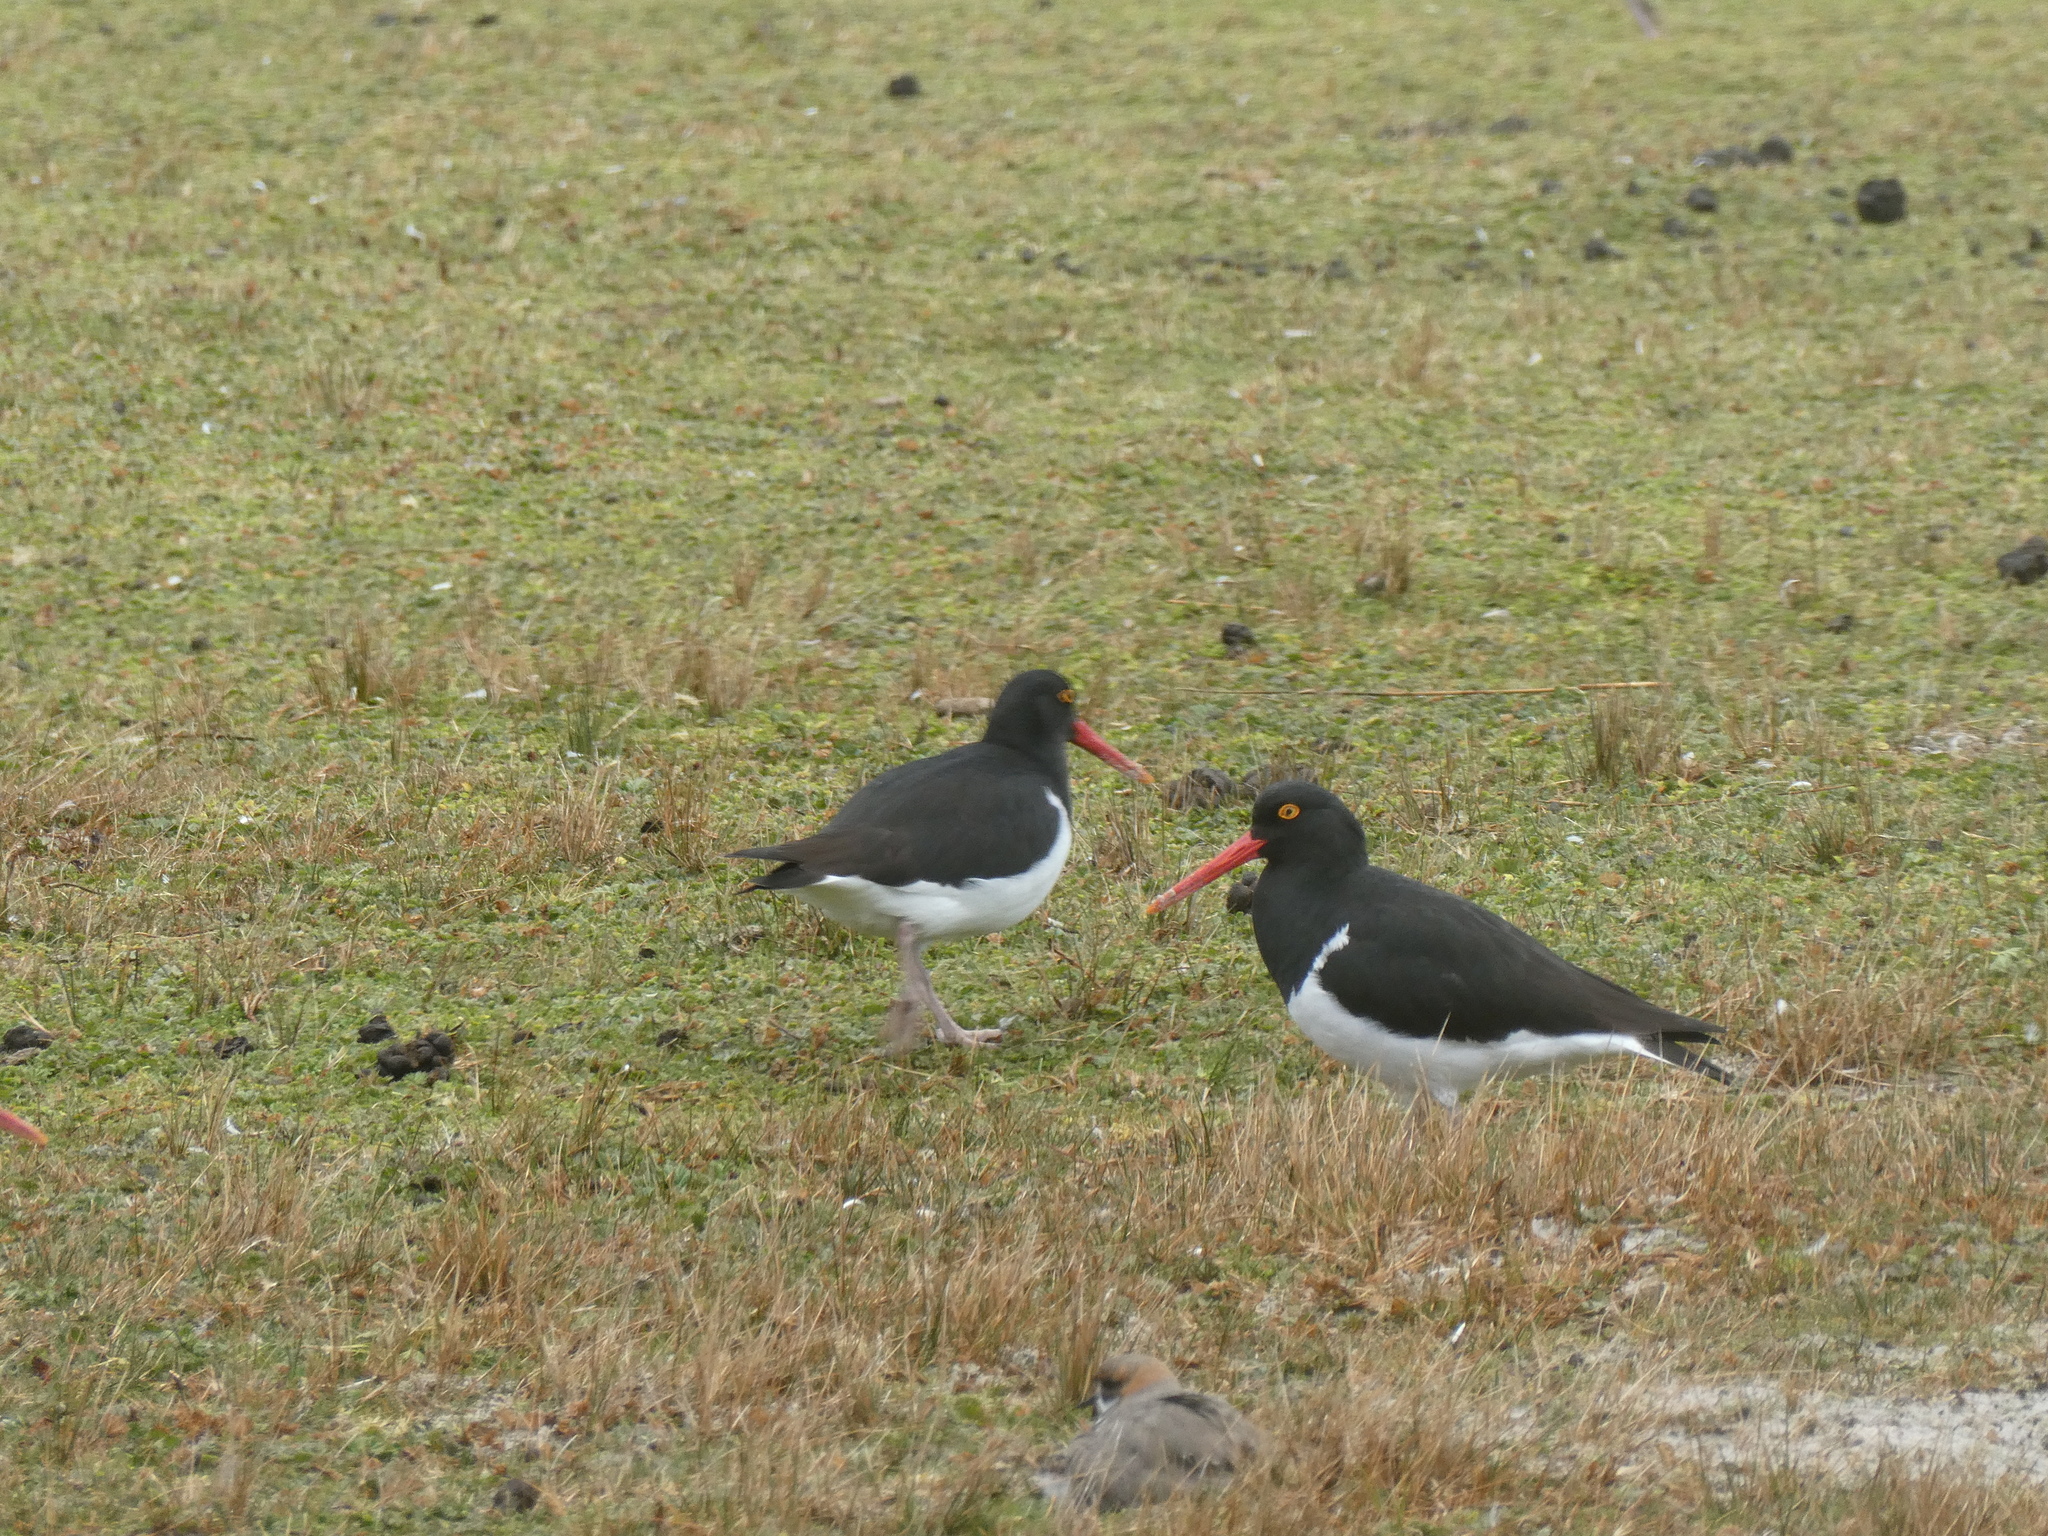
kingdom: Animalia
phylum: Chordata
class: Aves
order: Charadriiformes
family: Haematopodidae
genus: Haematopus
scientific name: Haematopus leucopodus
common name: Magellanic oystercatcher
